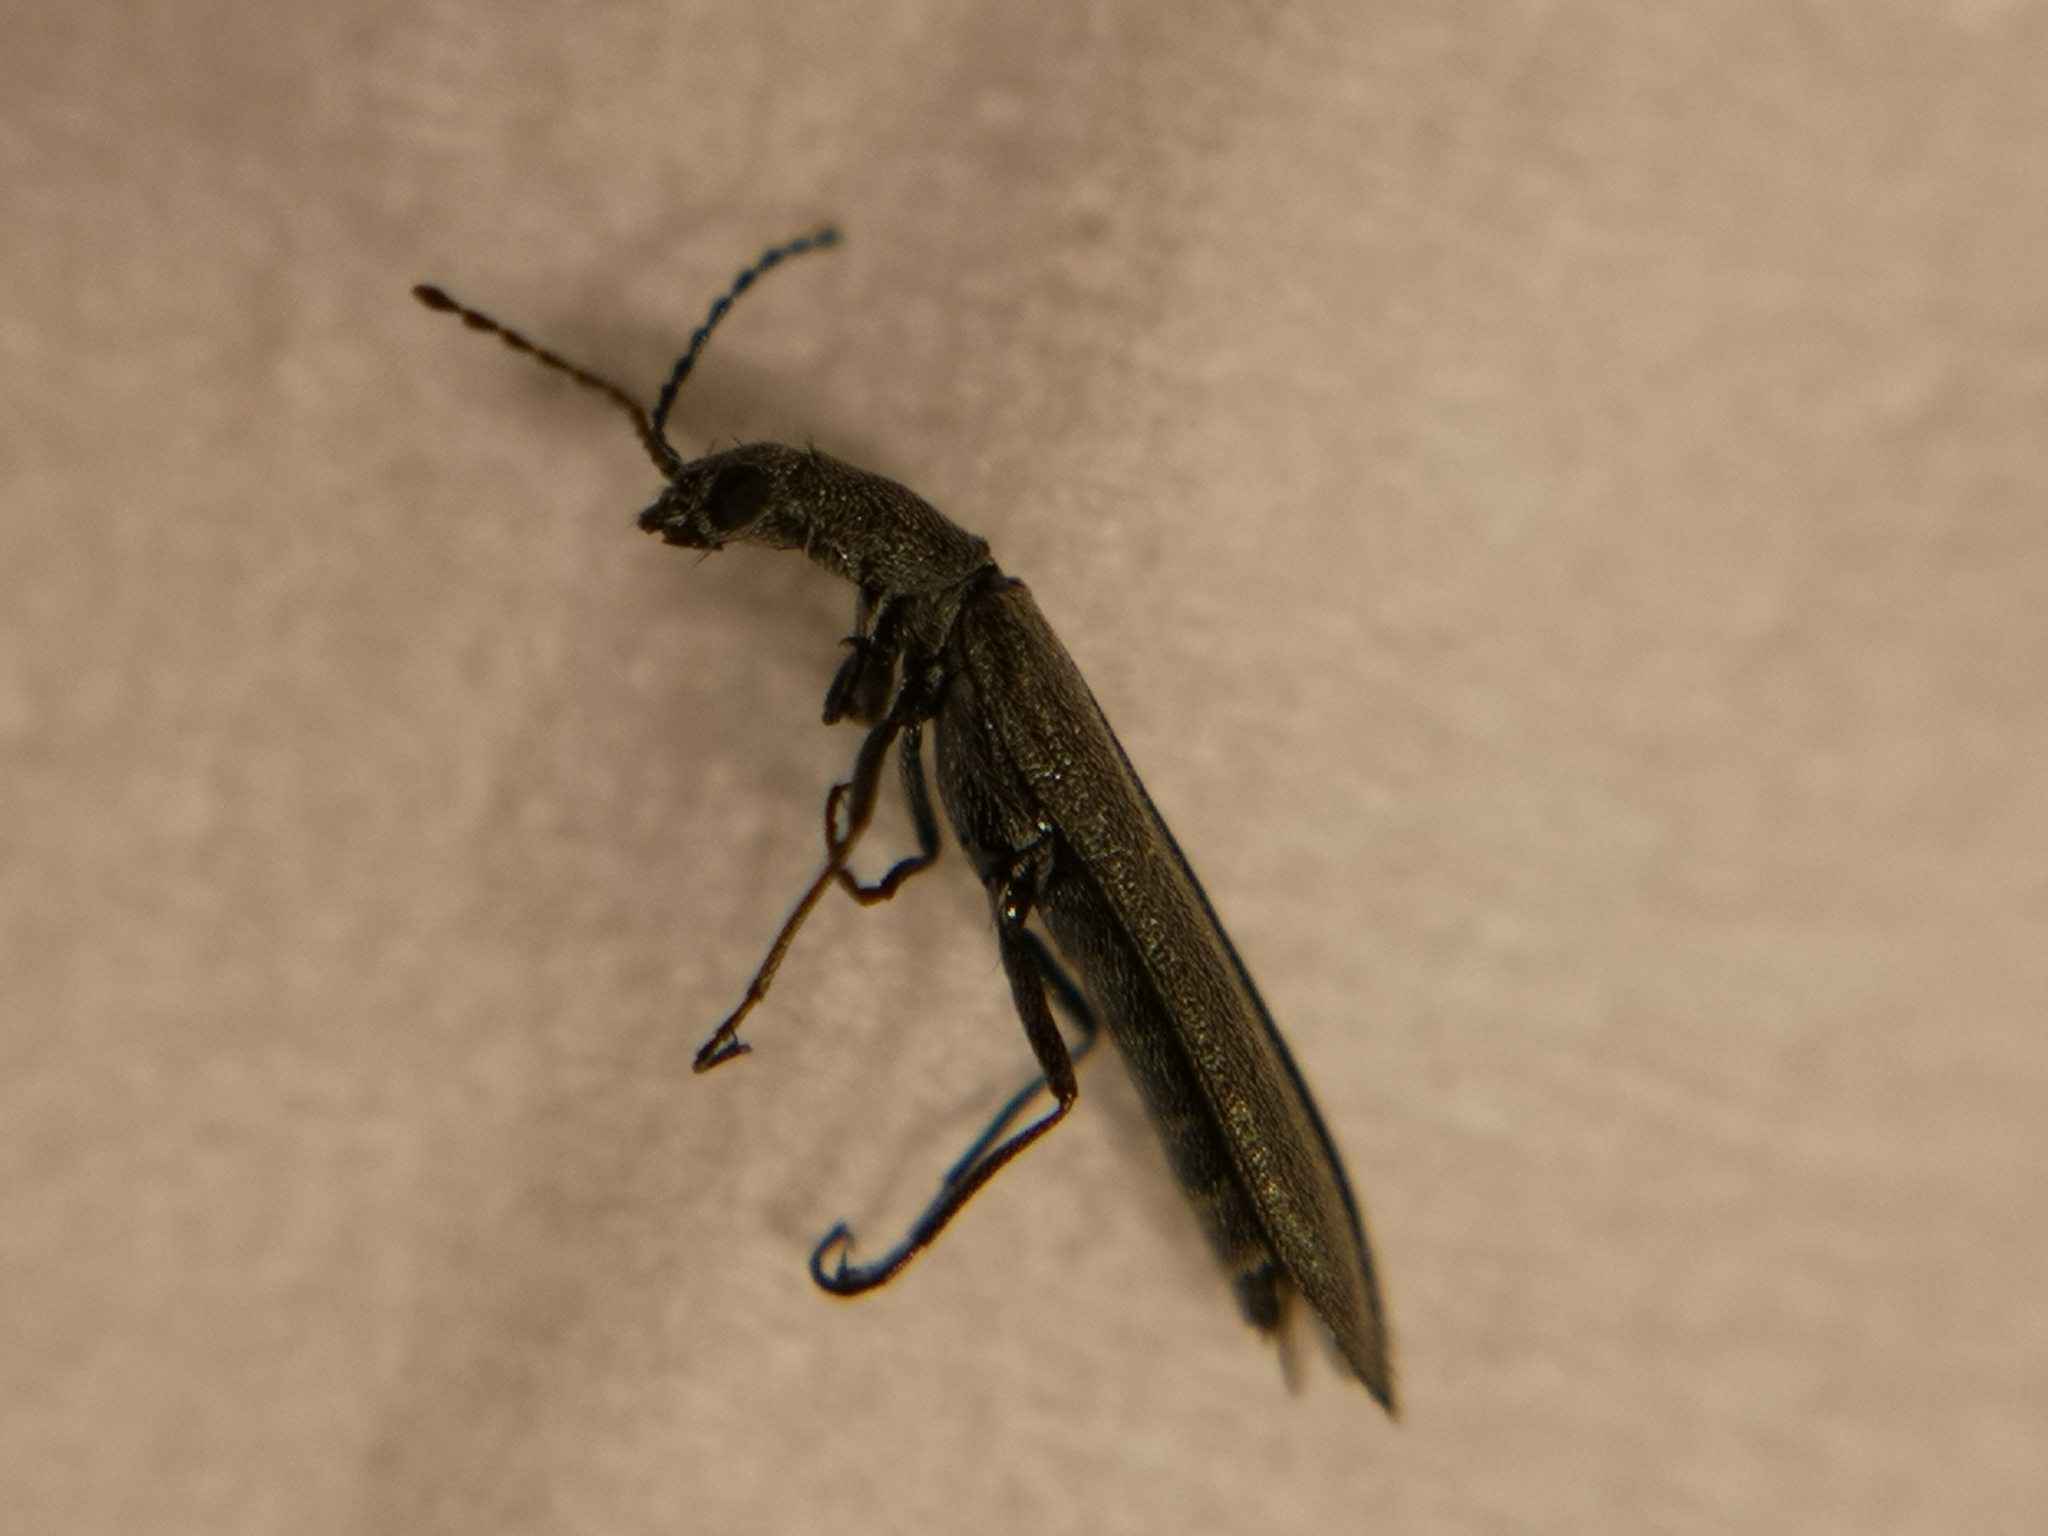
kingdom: Animalia
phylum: Arthropoda
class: Insecta
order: Coleoptera
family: Melyridae
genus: Dolichosoma
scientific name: Dolichosoma lineare
